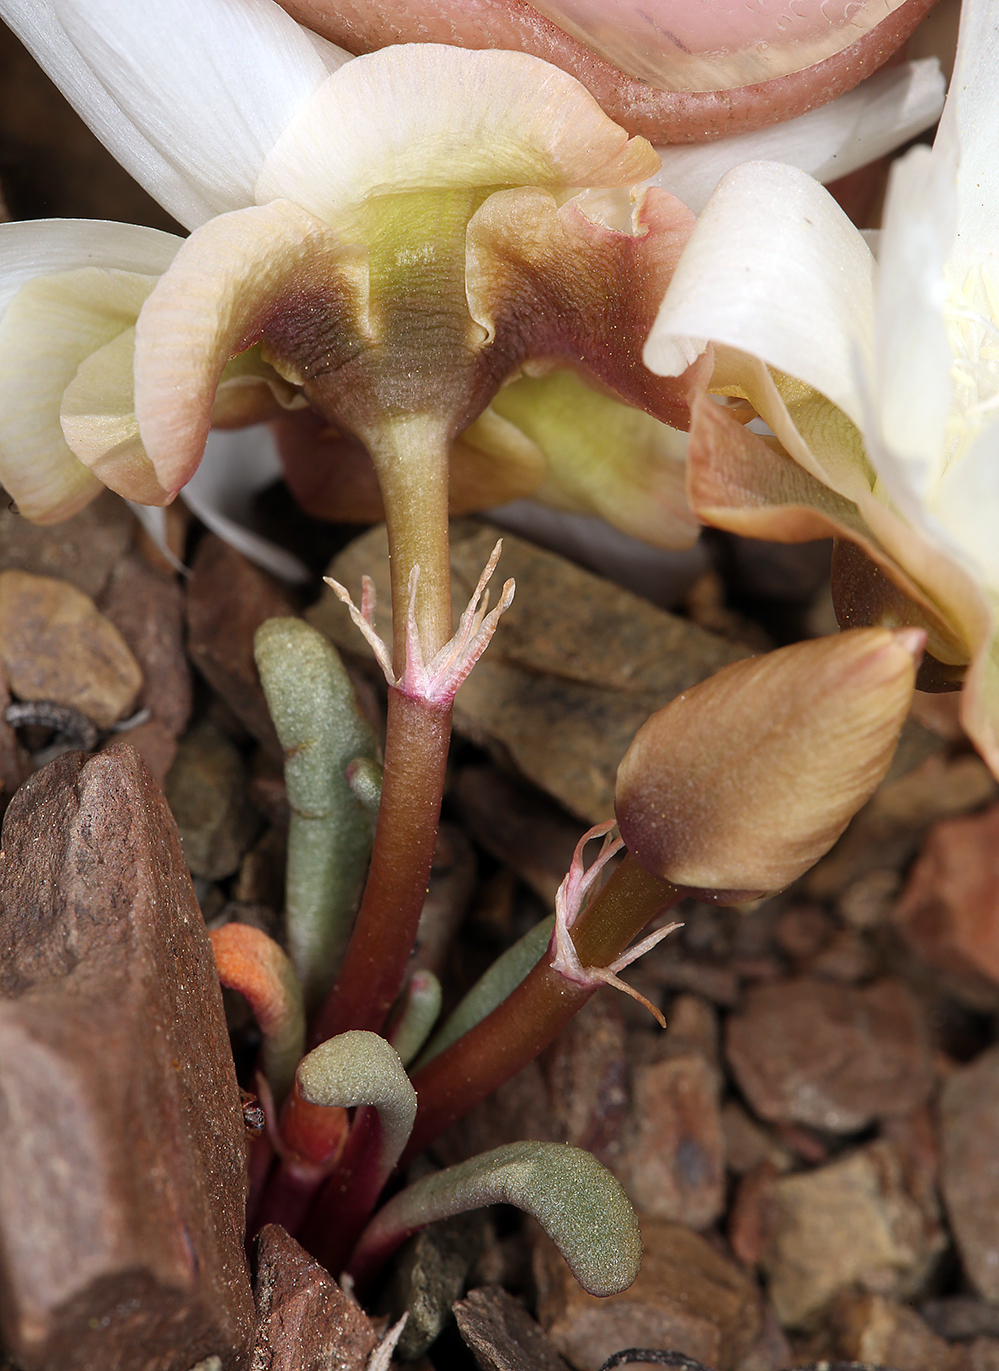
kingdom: Plantae
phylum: Tracheophyta
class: Magnoliopsida
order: Caryophyllales
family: Montiaceae
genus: Lewisia
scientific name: Lewisia rediviva
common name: Bitter-root
